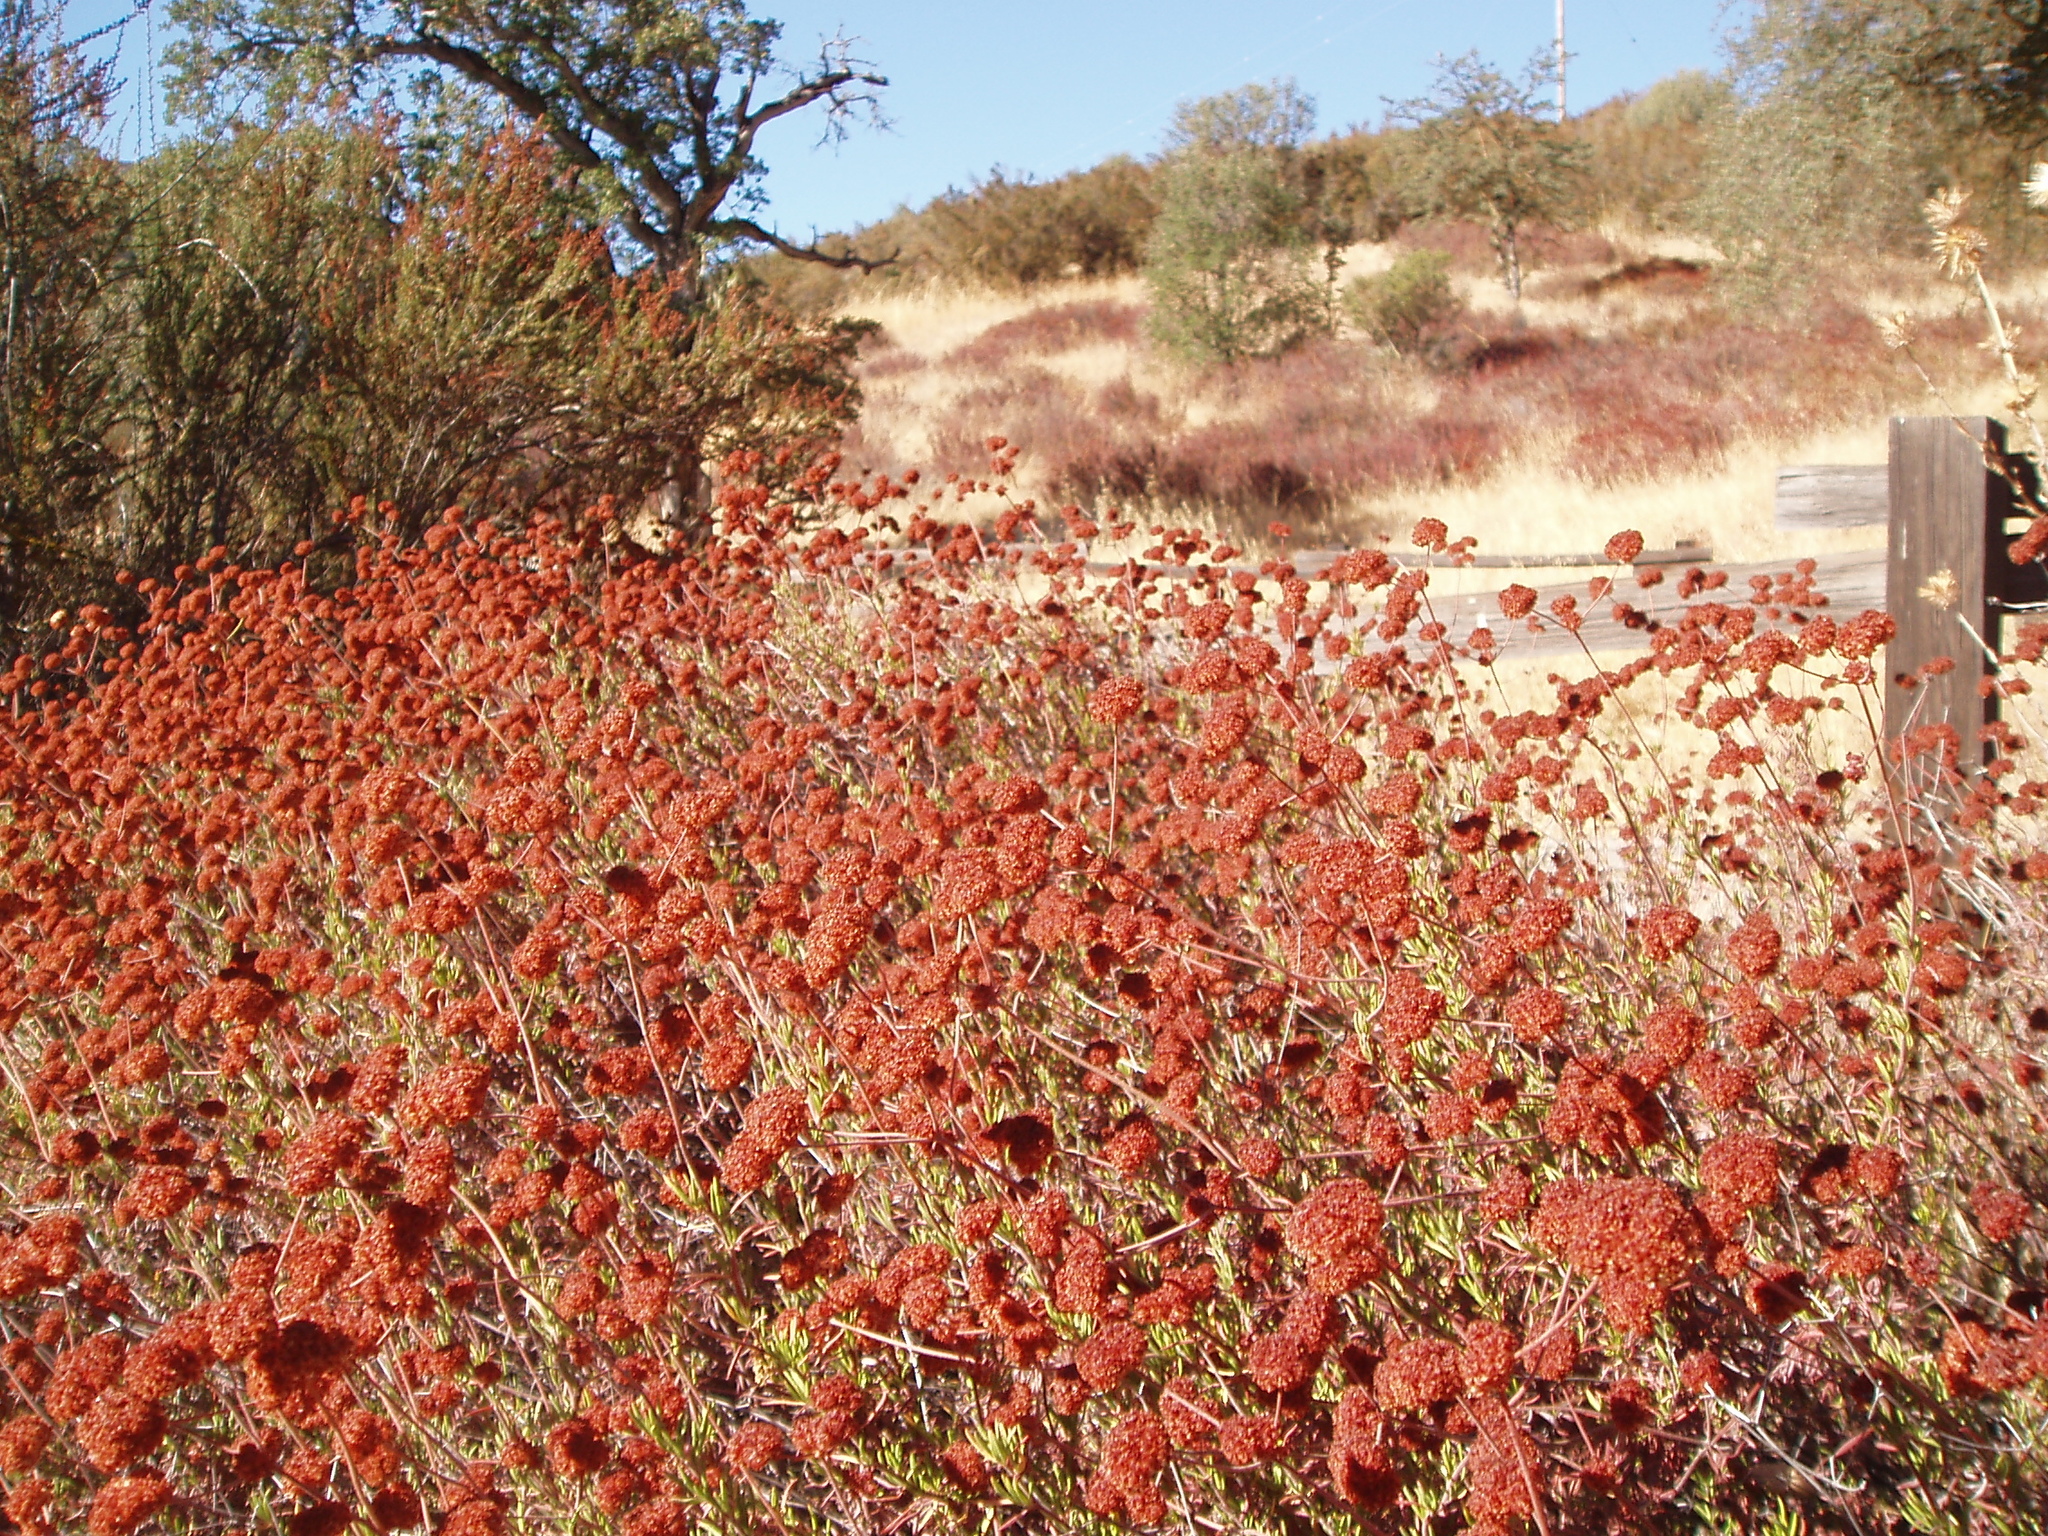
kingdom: Plantae
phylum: Tracheophyta
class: Magnoliopsida
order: Caryophyllales
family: Polygonaceae
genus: Eriogonum
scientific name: Eriogonum fasciculatum
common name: California wild buckwheat
